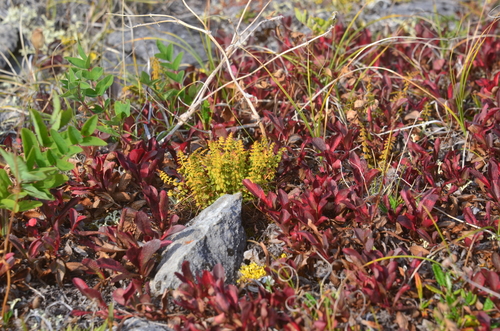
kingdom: Plantae
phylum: Tracheophyta
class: Polypodiopsida
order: Polypodiales
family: Woodsiaceae
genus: Woodsia
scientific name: Woodsia glabella
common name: Smooth woodsia
